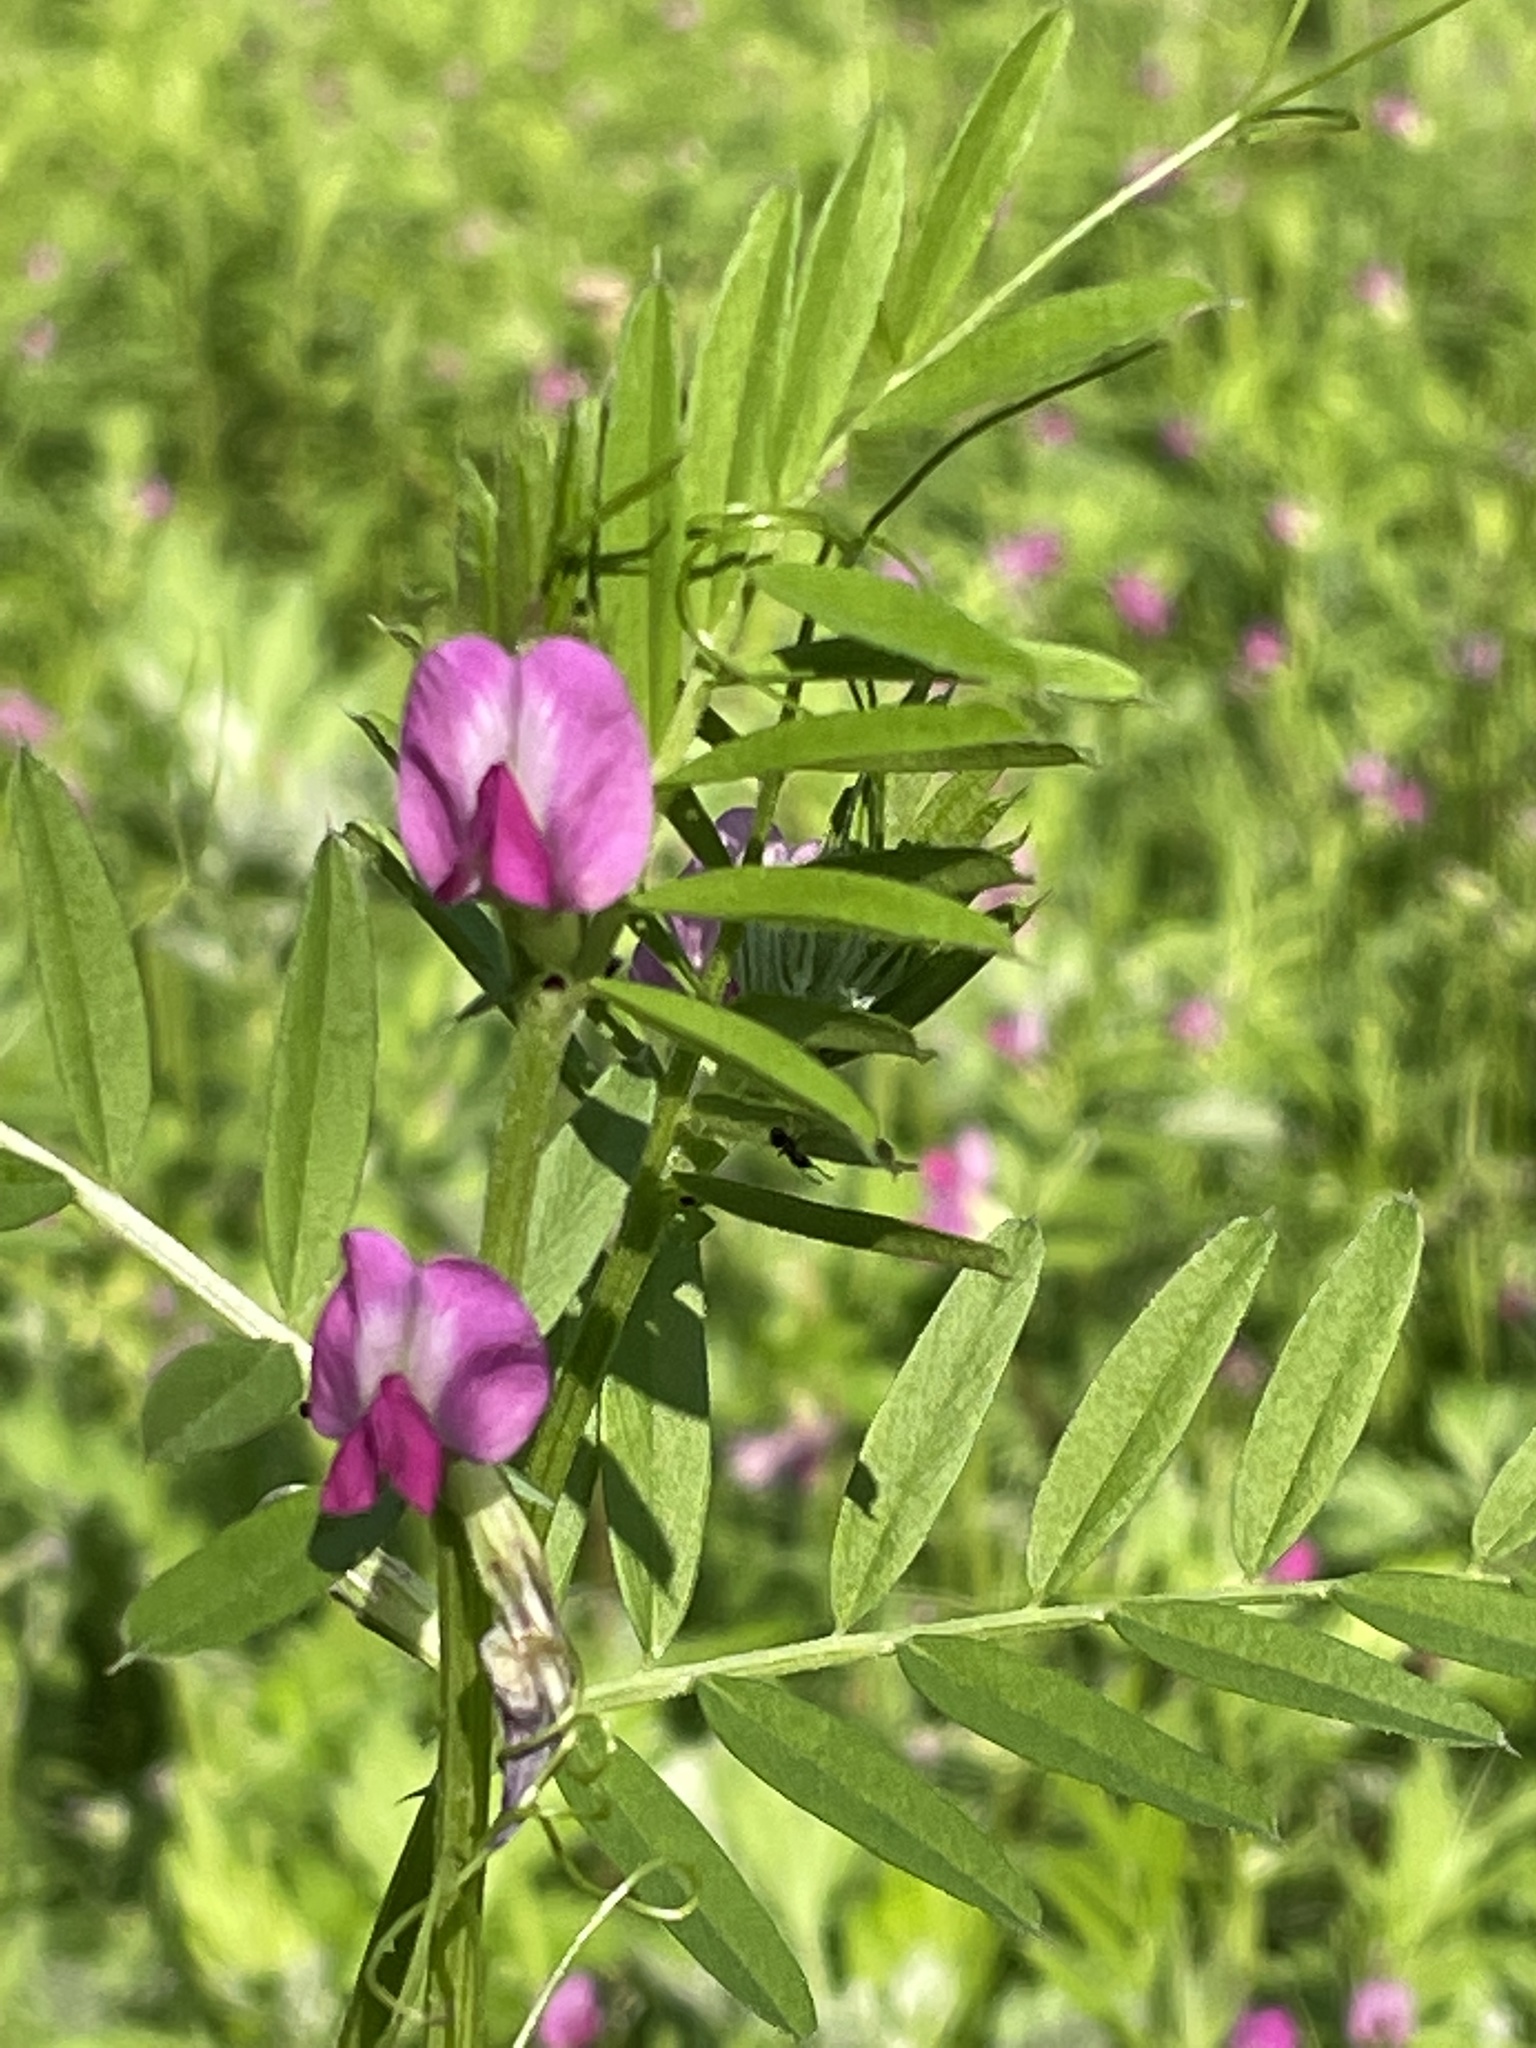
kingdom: Plantae
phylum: Tracheophyta
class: Magnoliopsida
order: Fabales
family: Fabaceae
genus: Vicia
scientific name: Vicia sativa
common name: Garden vetch
